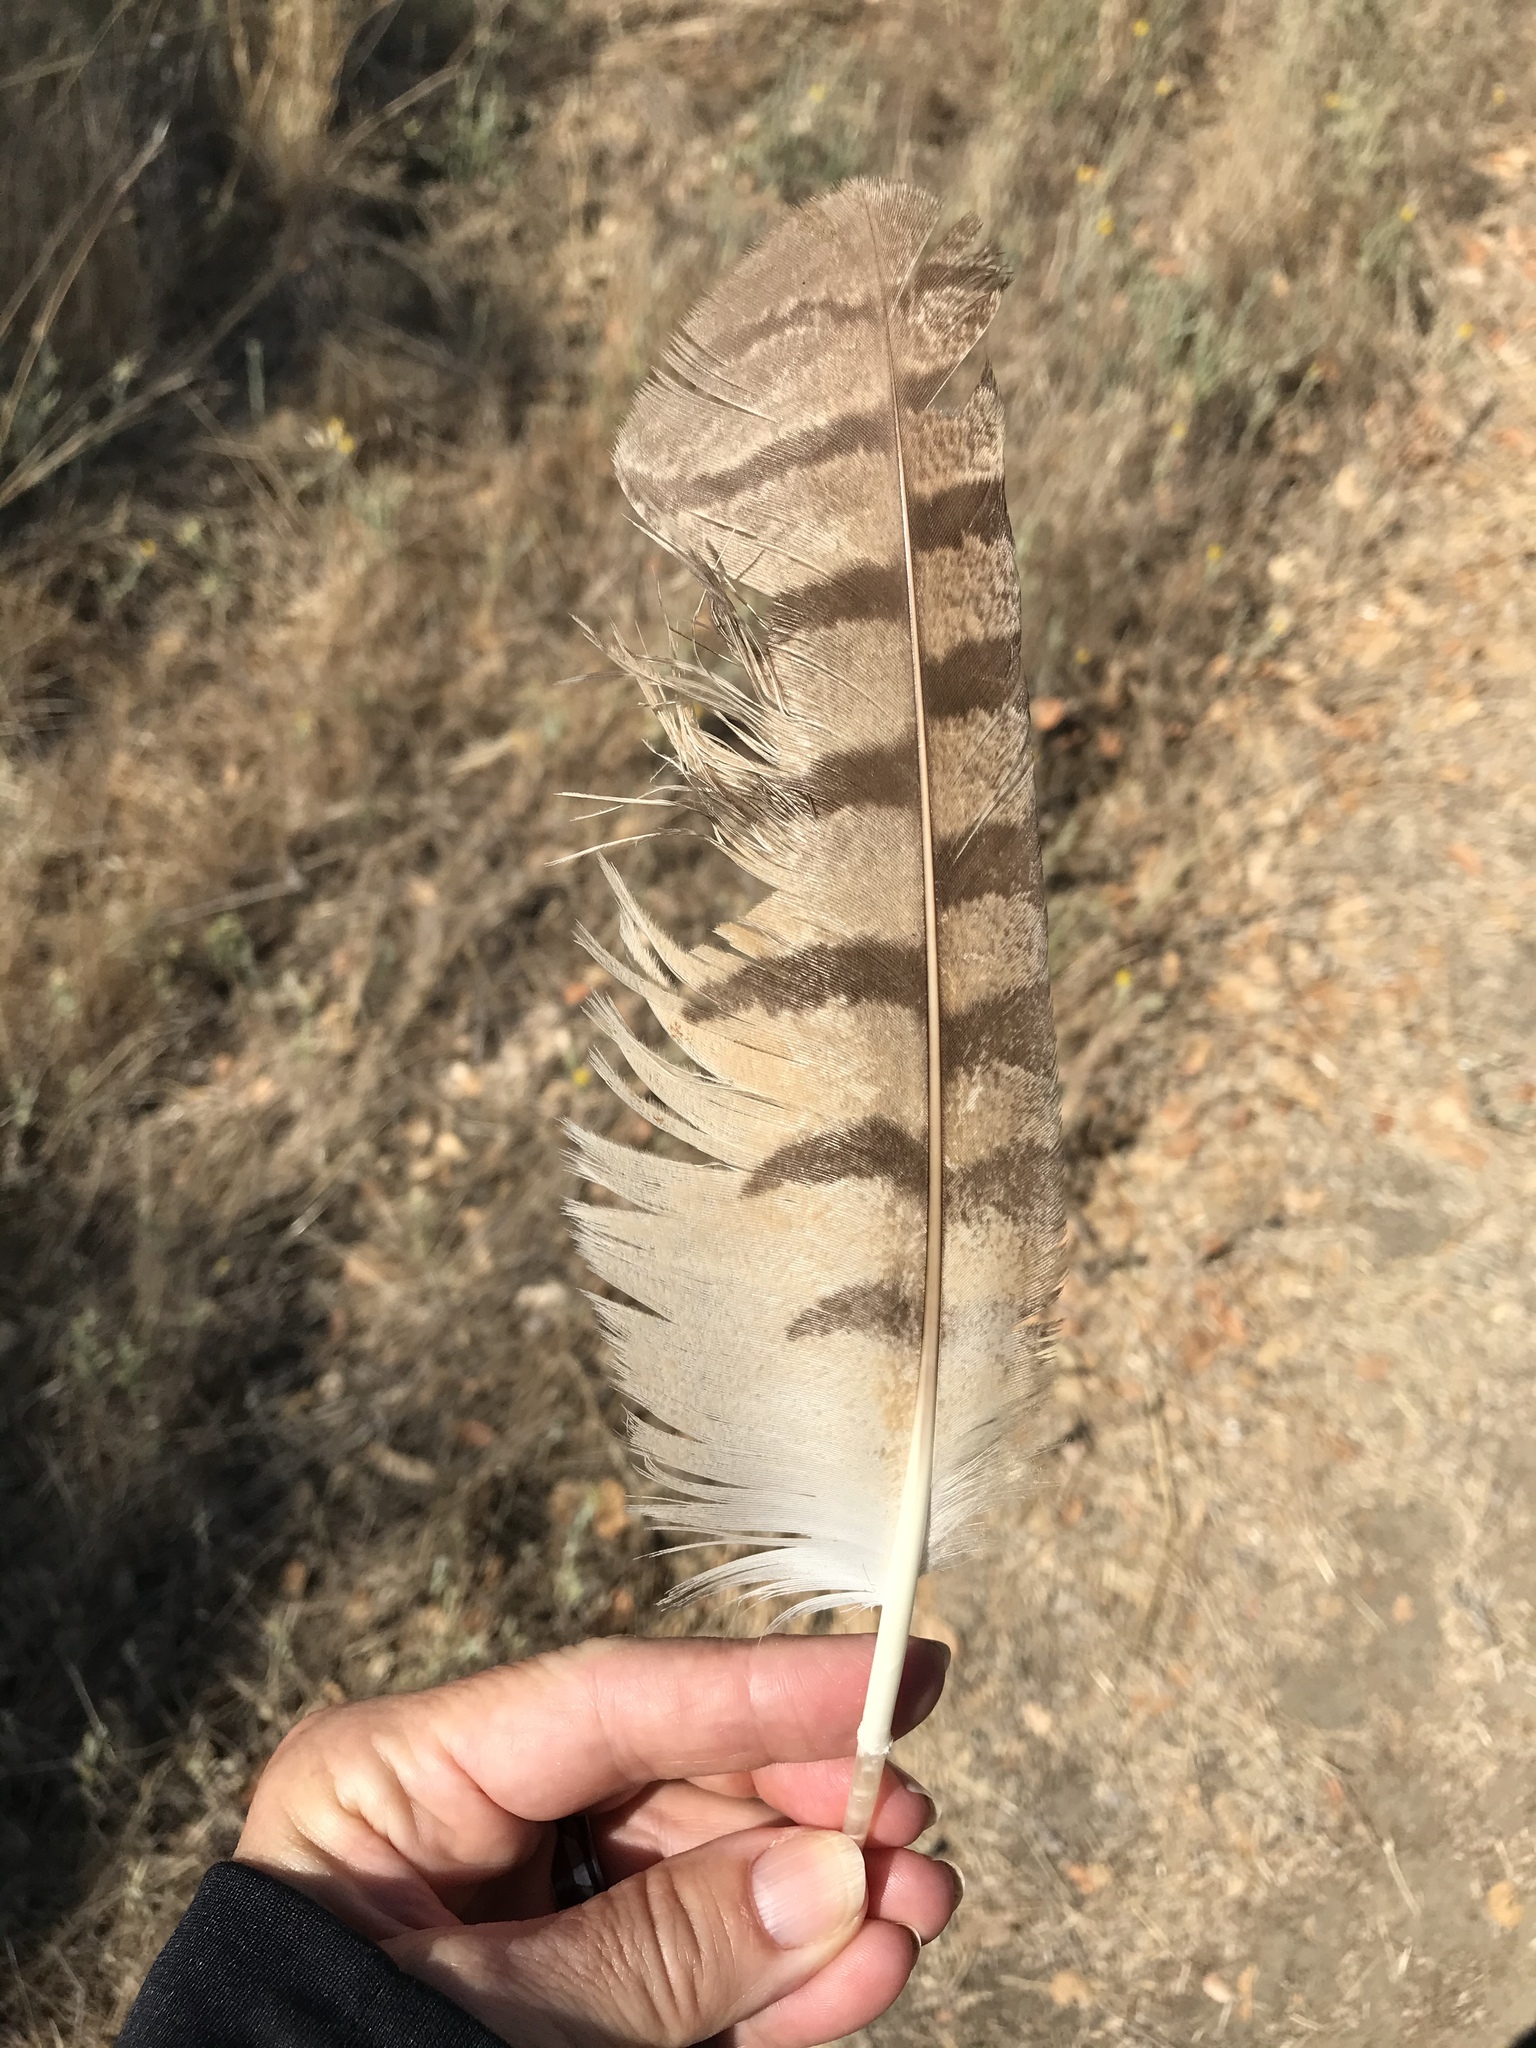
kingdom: Animalia
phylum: Chordata
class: Aves
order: Strigiformes
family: Strigidae
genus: Bubo
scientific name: Bubo virginianus
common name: Great horned owl
